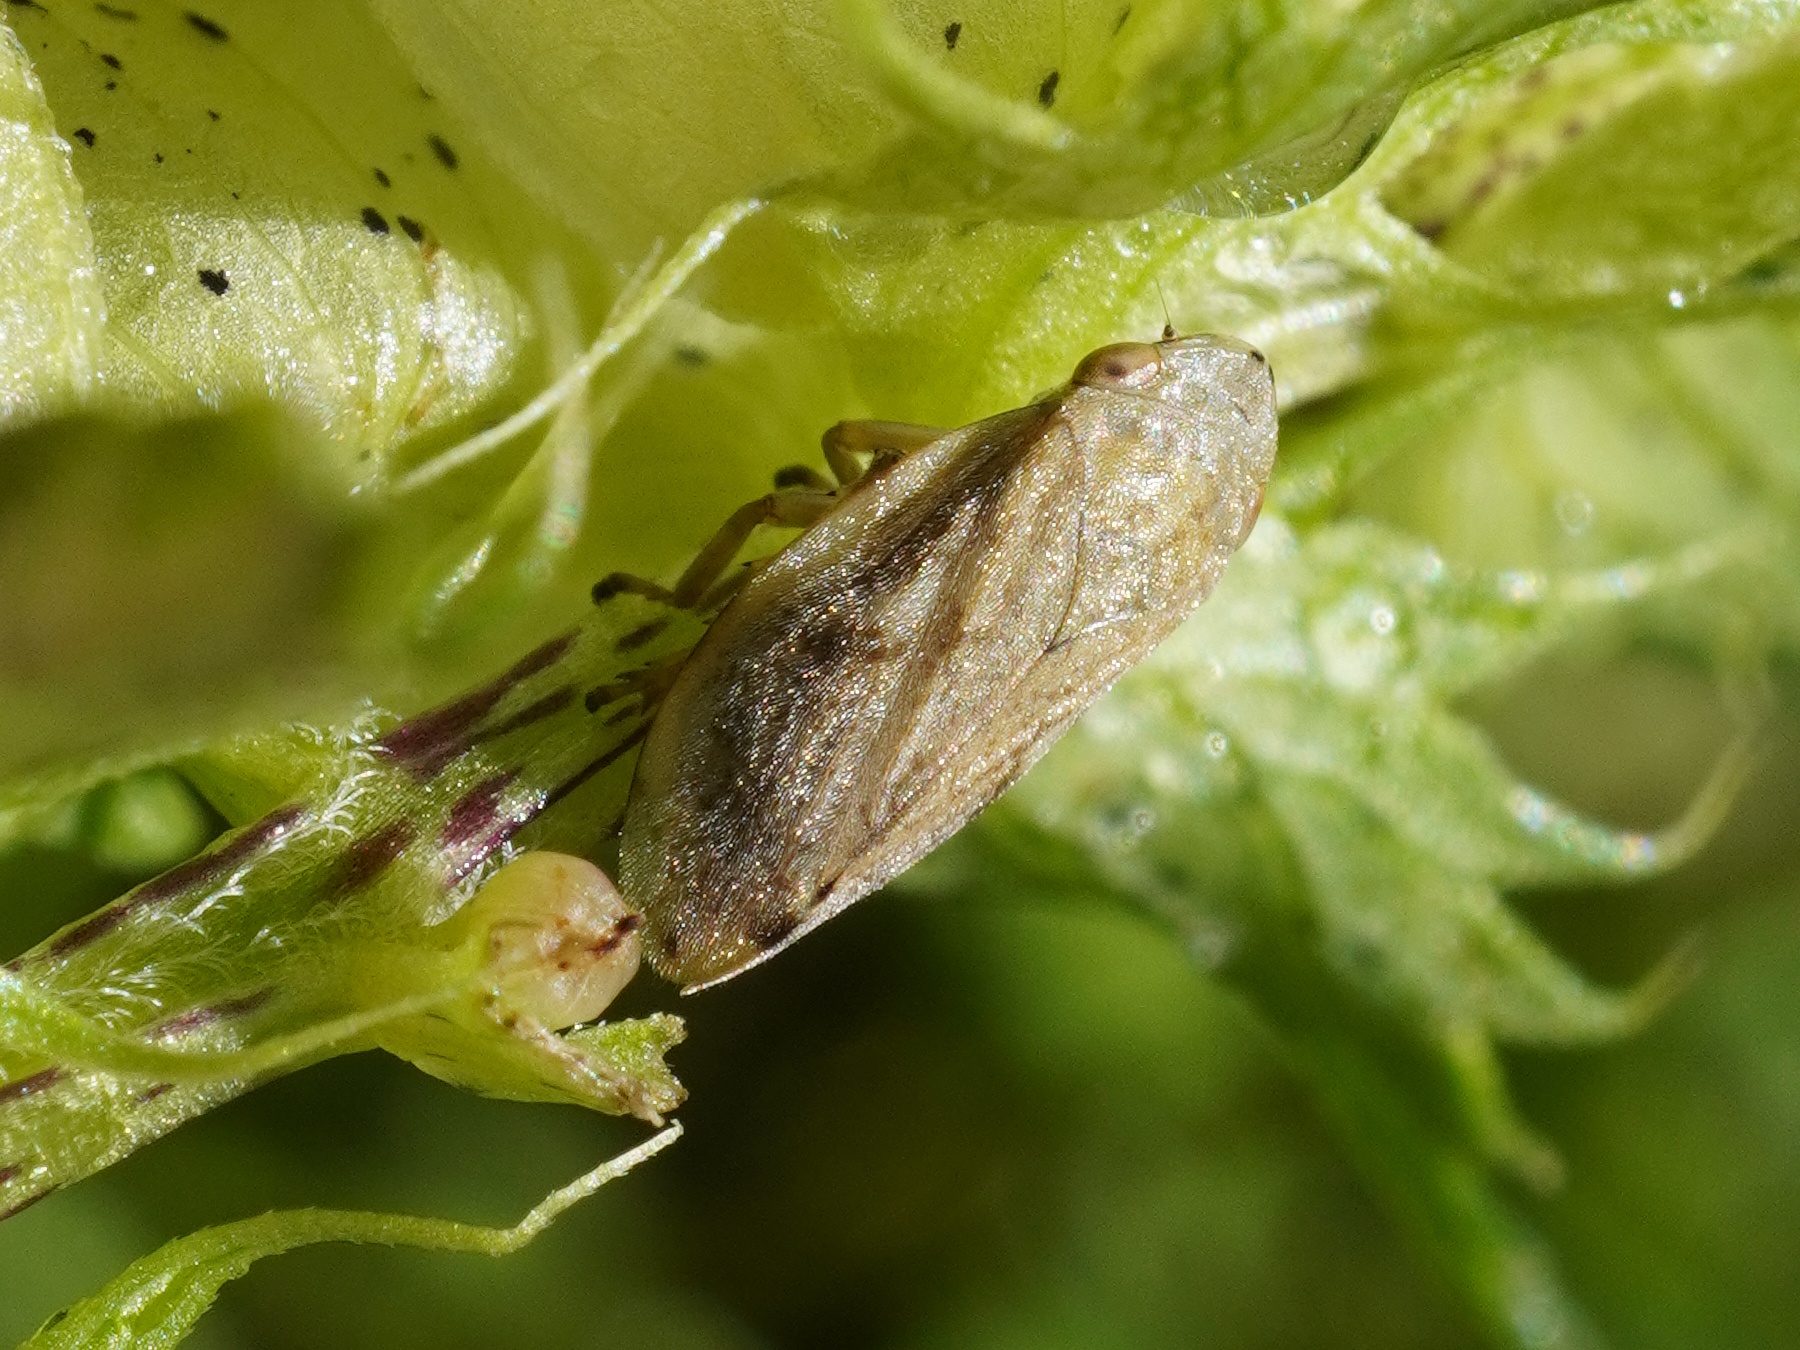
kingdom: Animalia
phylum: Arthropoda
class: Insecta
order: Hemiptera
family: Aphrophoridae
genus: Philaenus
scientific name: Philaenus spumarius
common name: Meadow spittlebug
